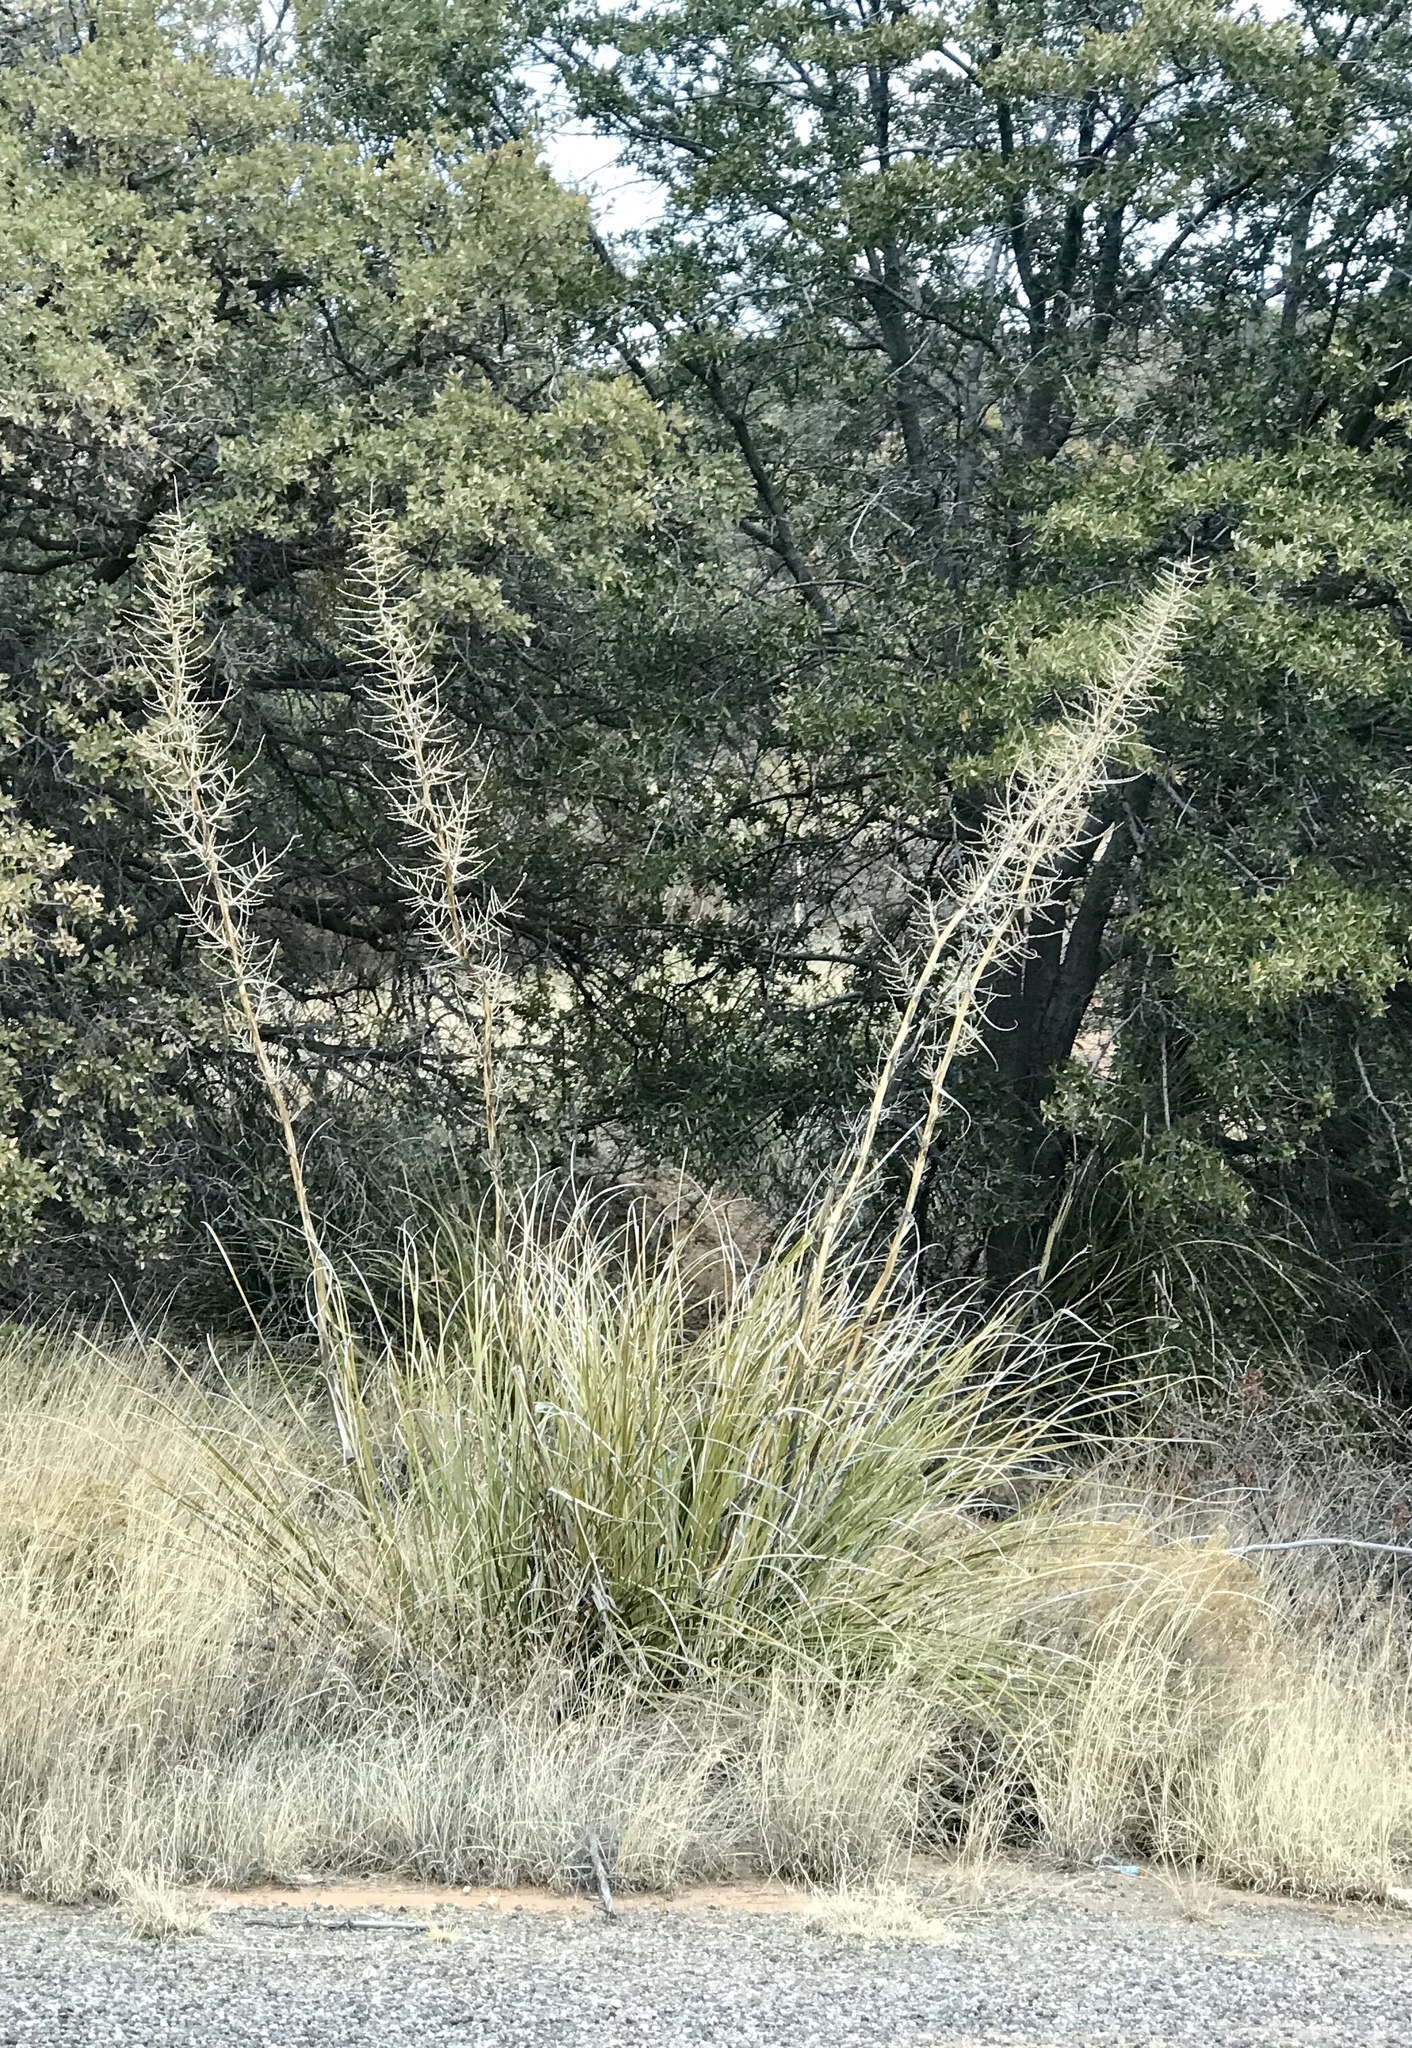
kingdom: Plantae
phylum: Tracheophyta
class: Liliopsida
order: Asparagales
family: Asparagaceae
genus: Nolina
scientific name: Nolina microcarpa
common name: Bear-grass
